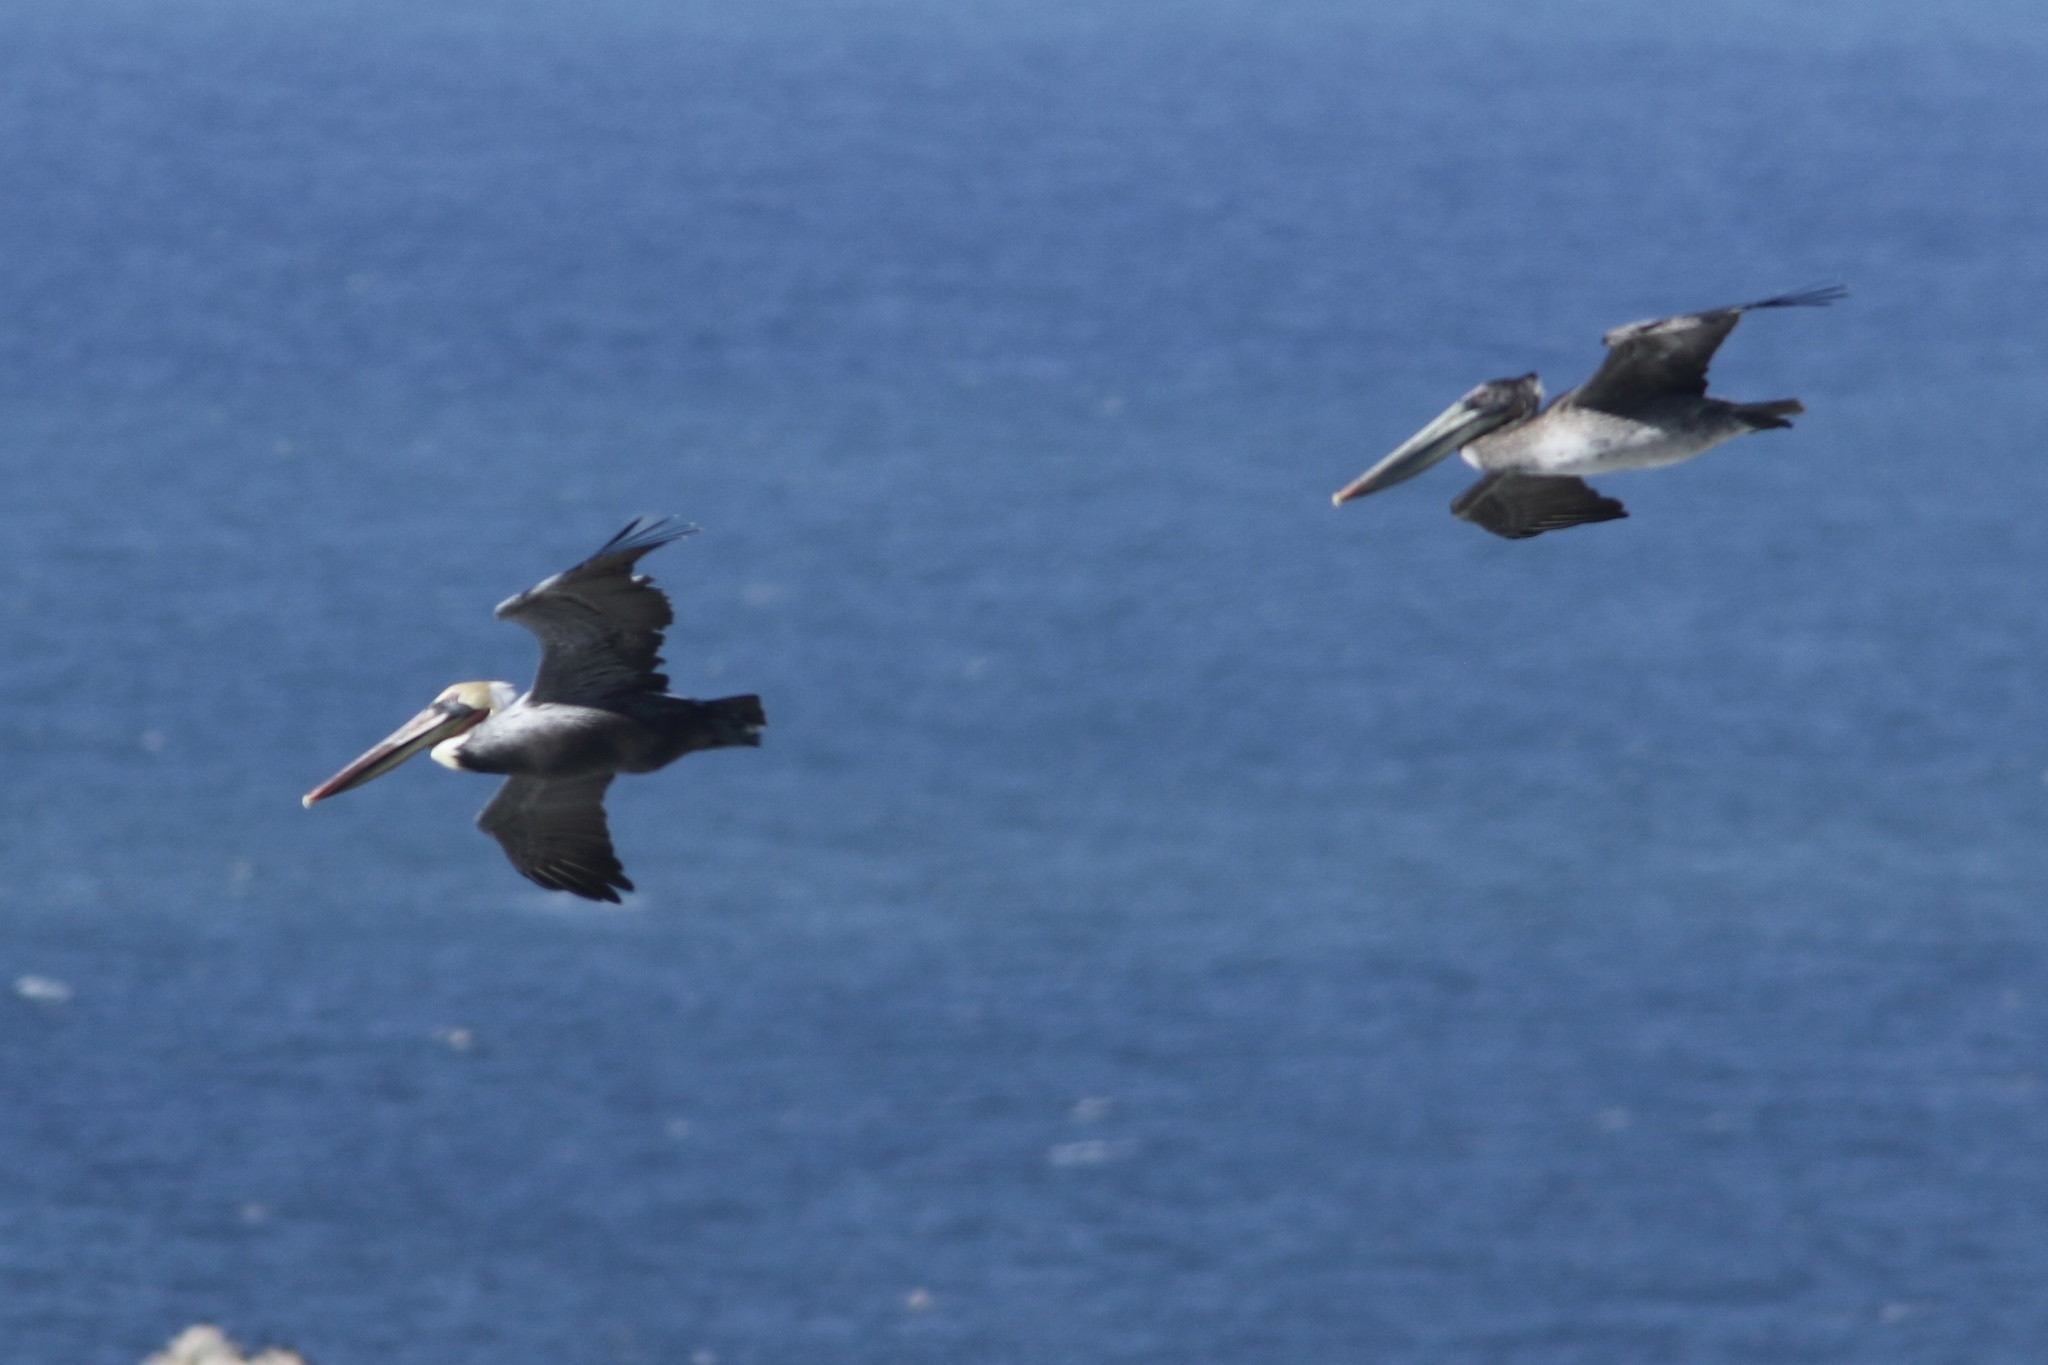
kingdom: Animalia
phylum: Chordata
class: Aves
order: Pelecaniformes
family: Pelecanidae
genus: Pelecanus
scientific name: Pelecanus occidentalis
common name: Brown pelican
